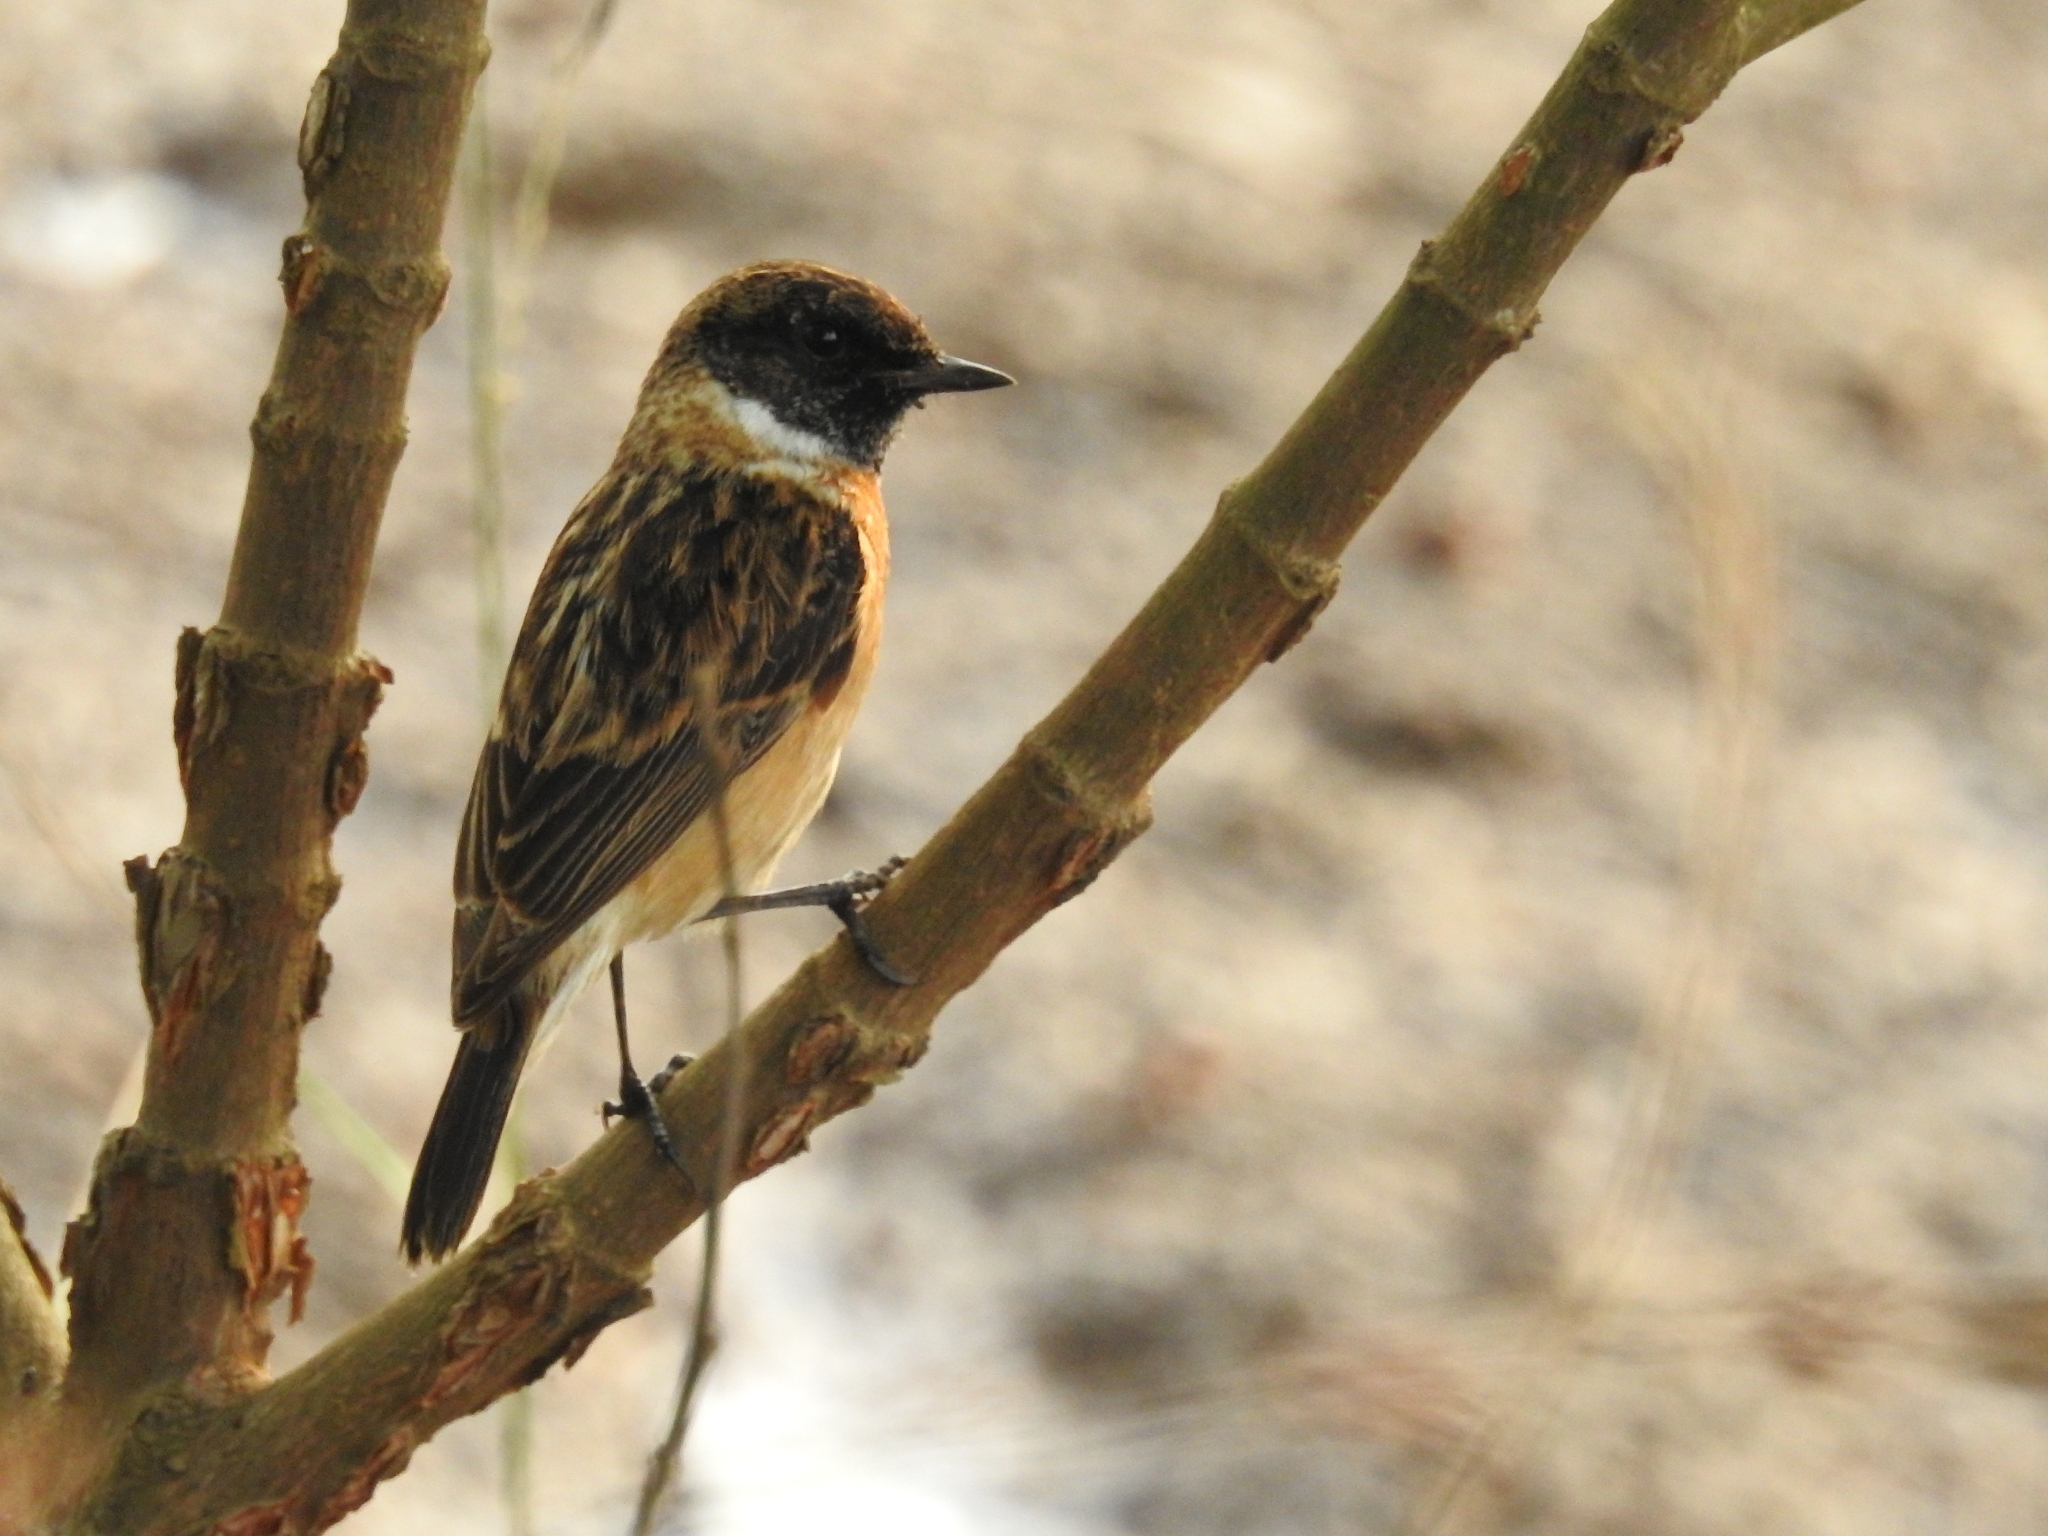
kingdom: Animalia
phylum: Chordata
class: Aves
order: Passeriformes
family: Muscicapidae
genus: Saxicola
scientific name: Saxicola maurus
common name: Siberian stonechat
